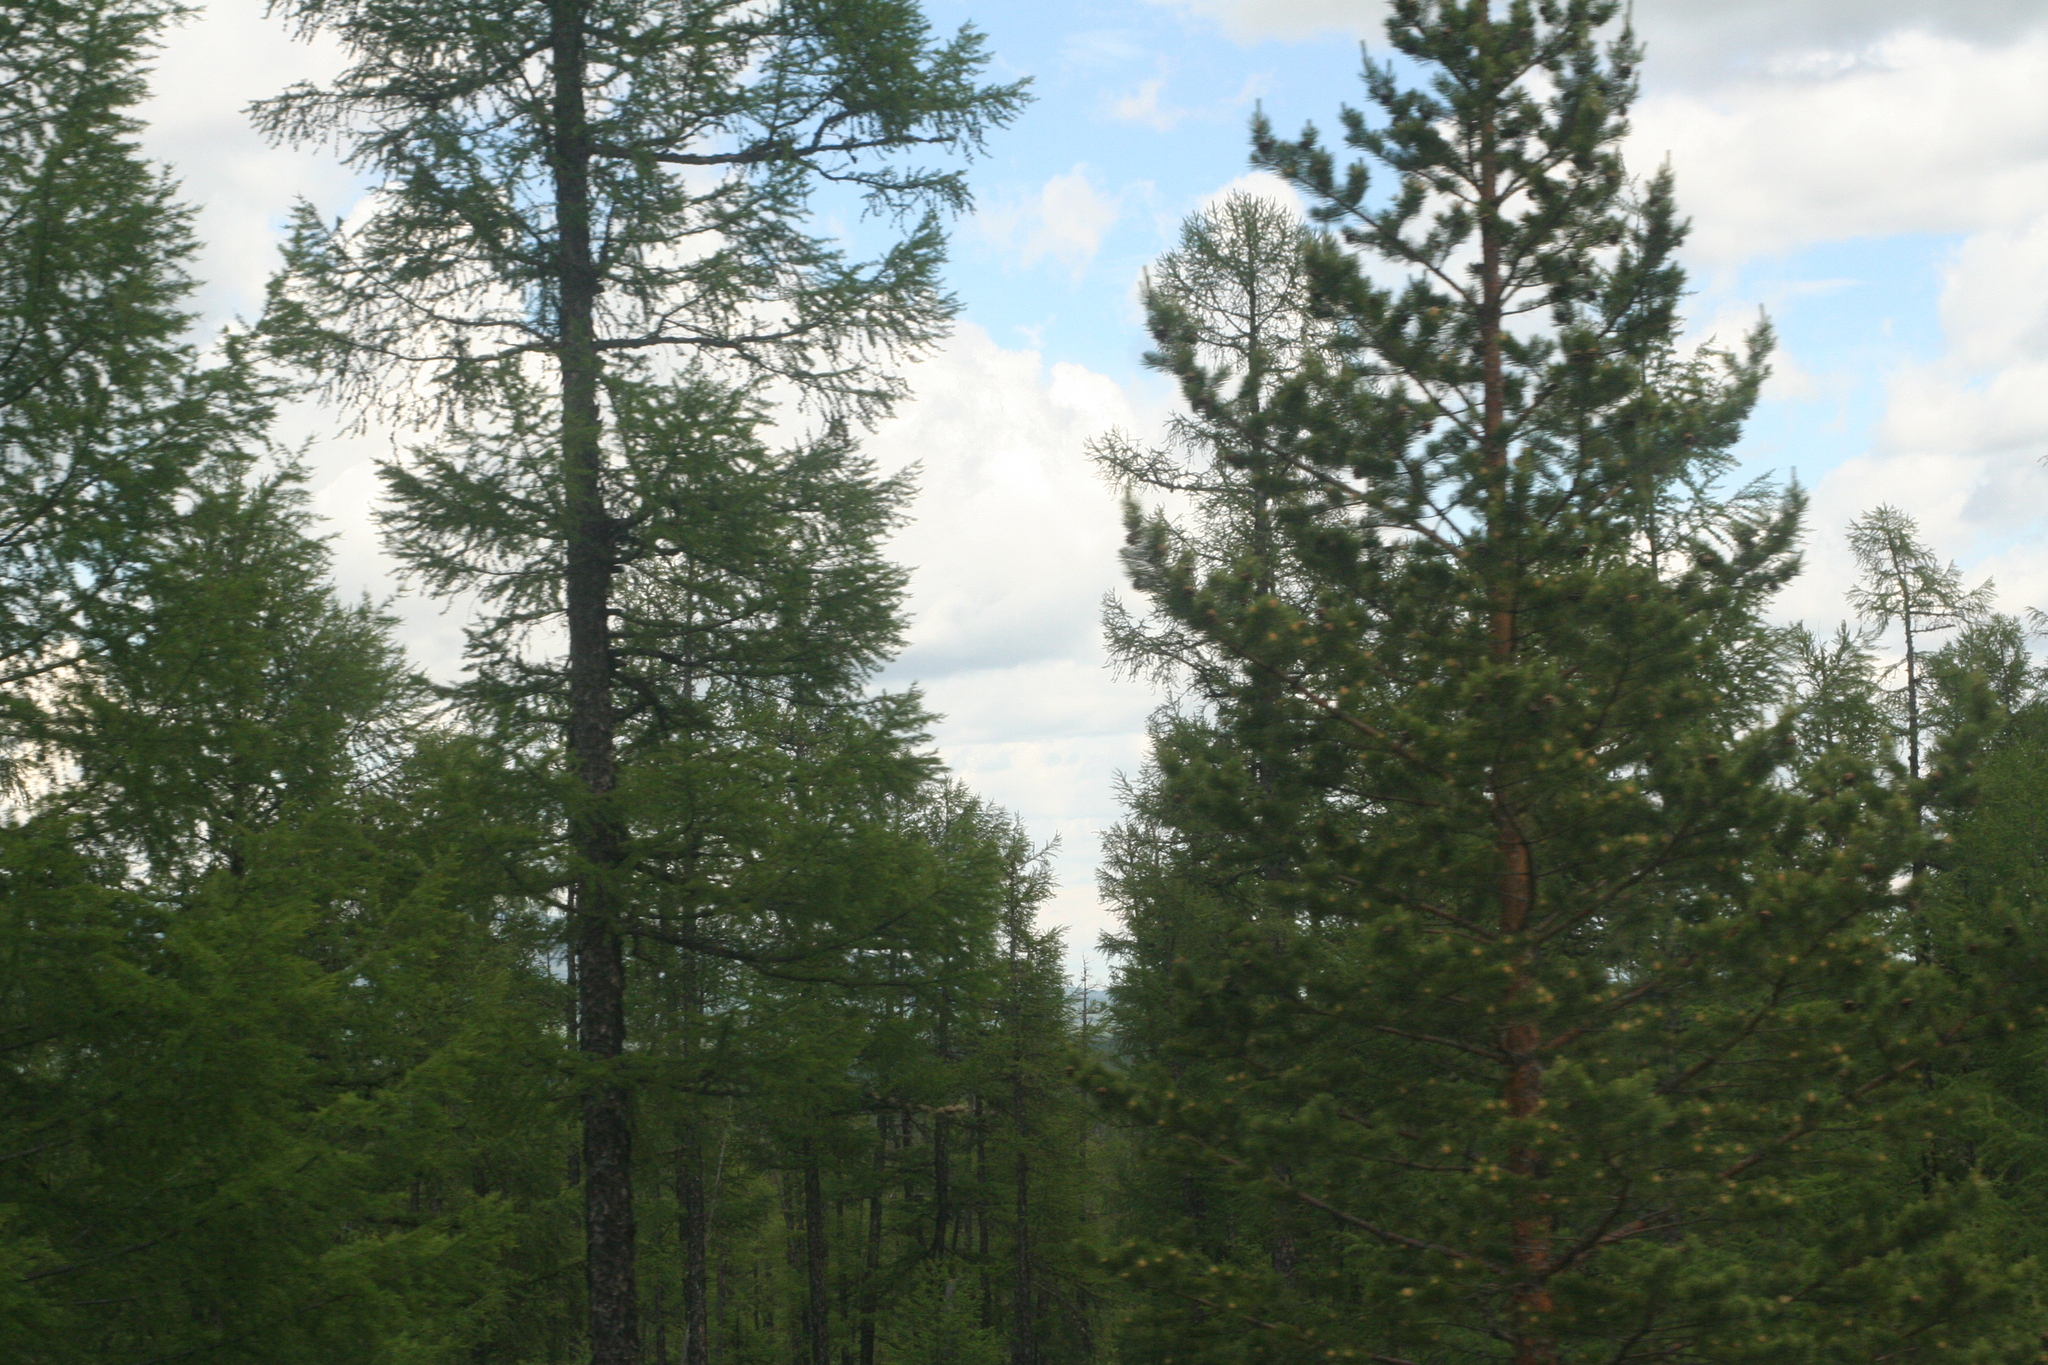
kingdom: Plantae
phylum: Tracheophyta
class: Pinopsida
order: Pinales
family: Pinaceae
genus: Pinus
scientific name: Pinus sylvestris
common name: Scots pine
